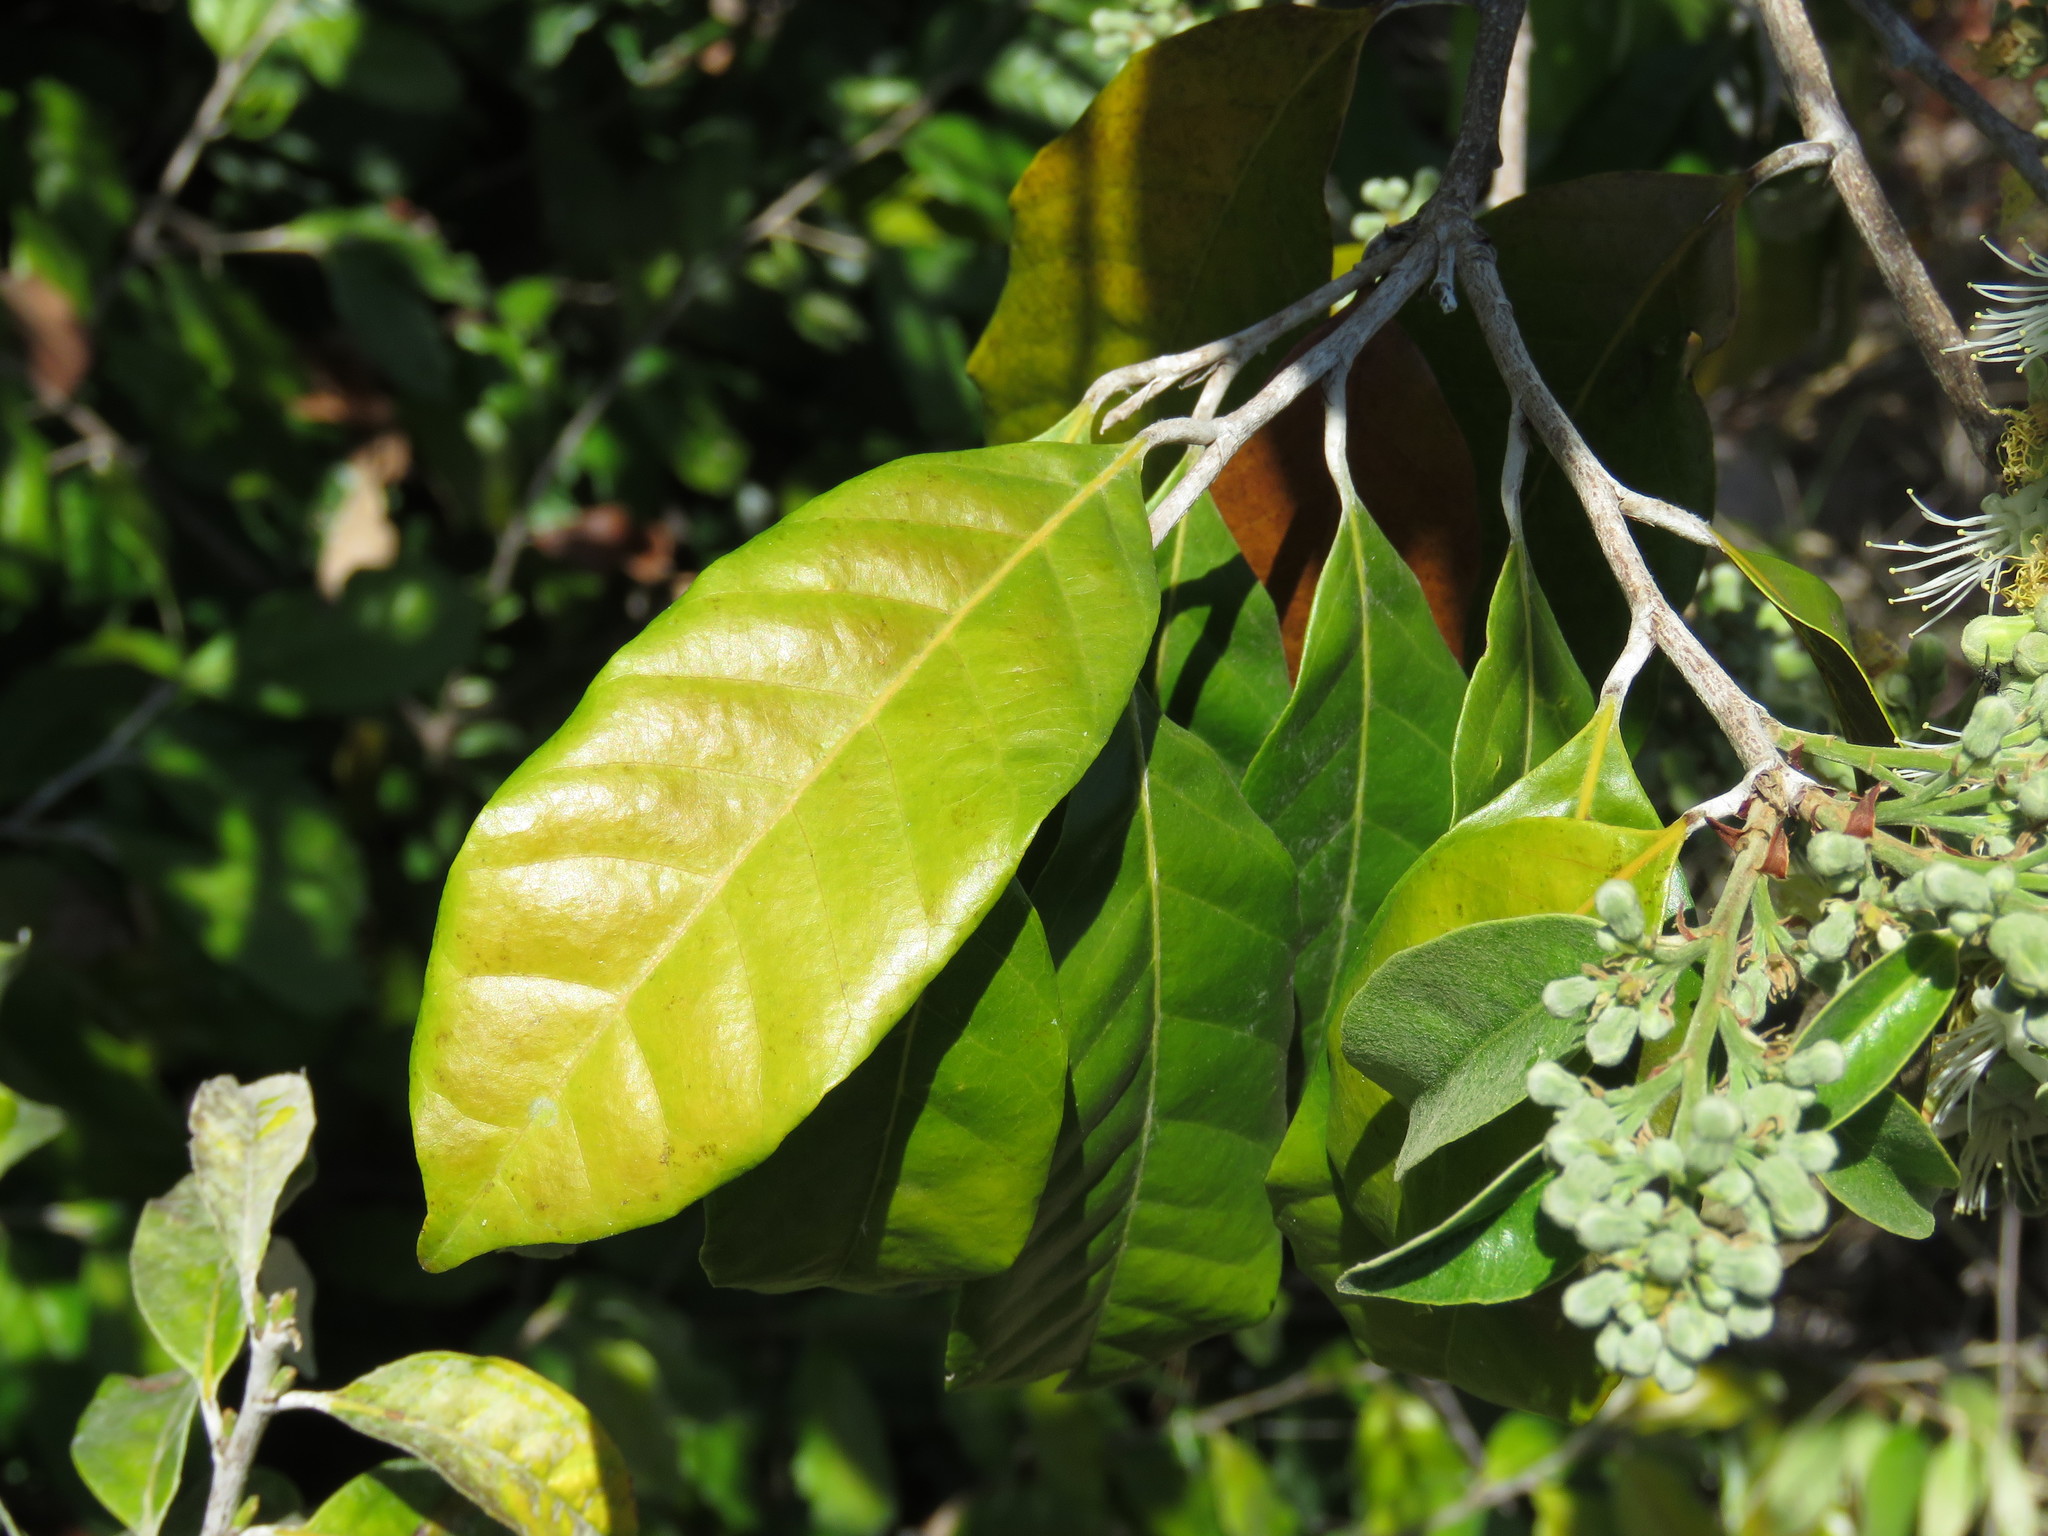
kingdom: Plantae
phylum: Tracheophyta
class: Magnoliopsida
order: Malpighiales
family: Chrysobalanaceae
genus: Couepia
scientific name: Couepia polyandra
